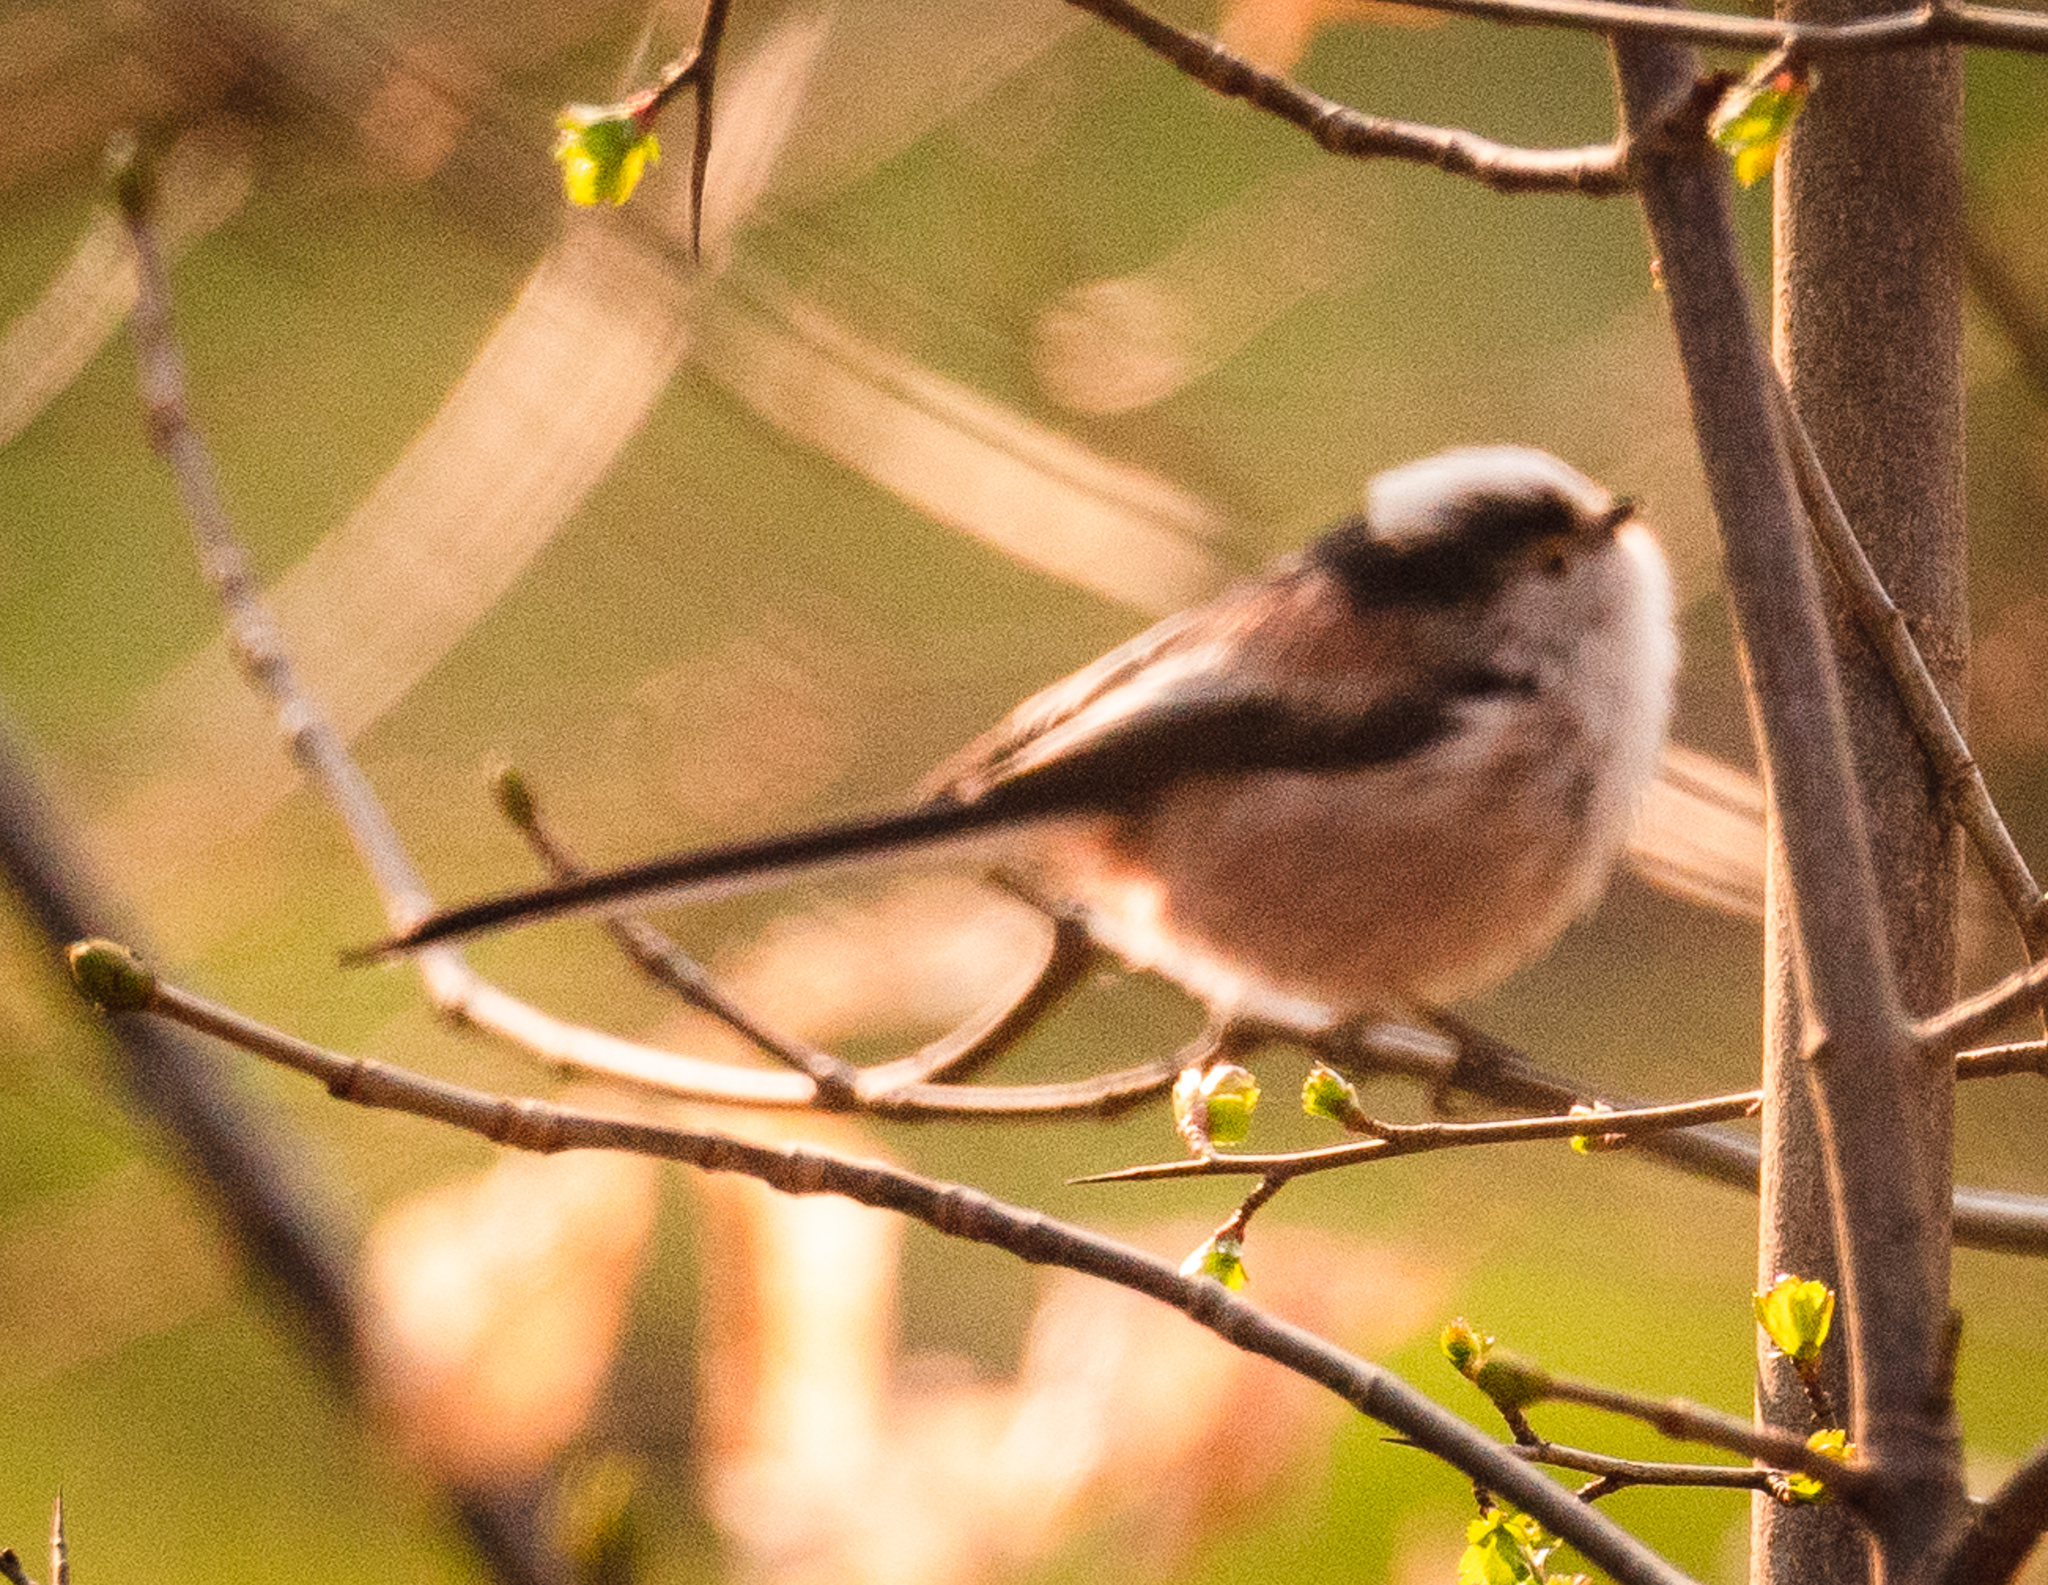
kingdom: Animalia
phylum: Chordata
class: Aves
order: Passeriformes
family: Aegithalidae
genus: Aegithalos
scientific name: Aegithalos caudatus
